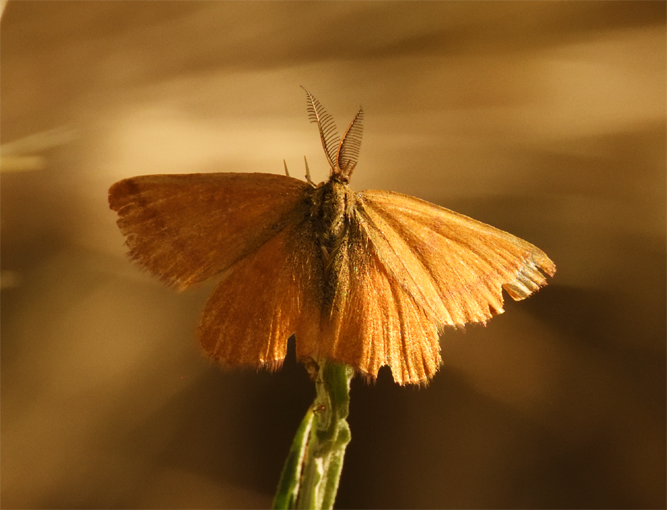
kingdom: Animalia
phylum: Arthropoda
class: Insecta
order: Lepidoptera
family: Geometridae
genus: Lythria
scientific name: Lythria purpuraria
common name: Purple-barred yellow
